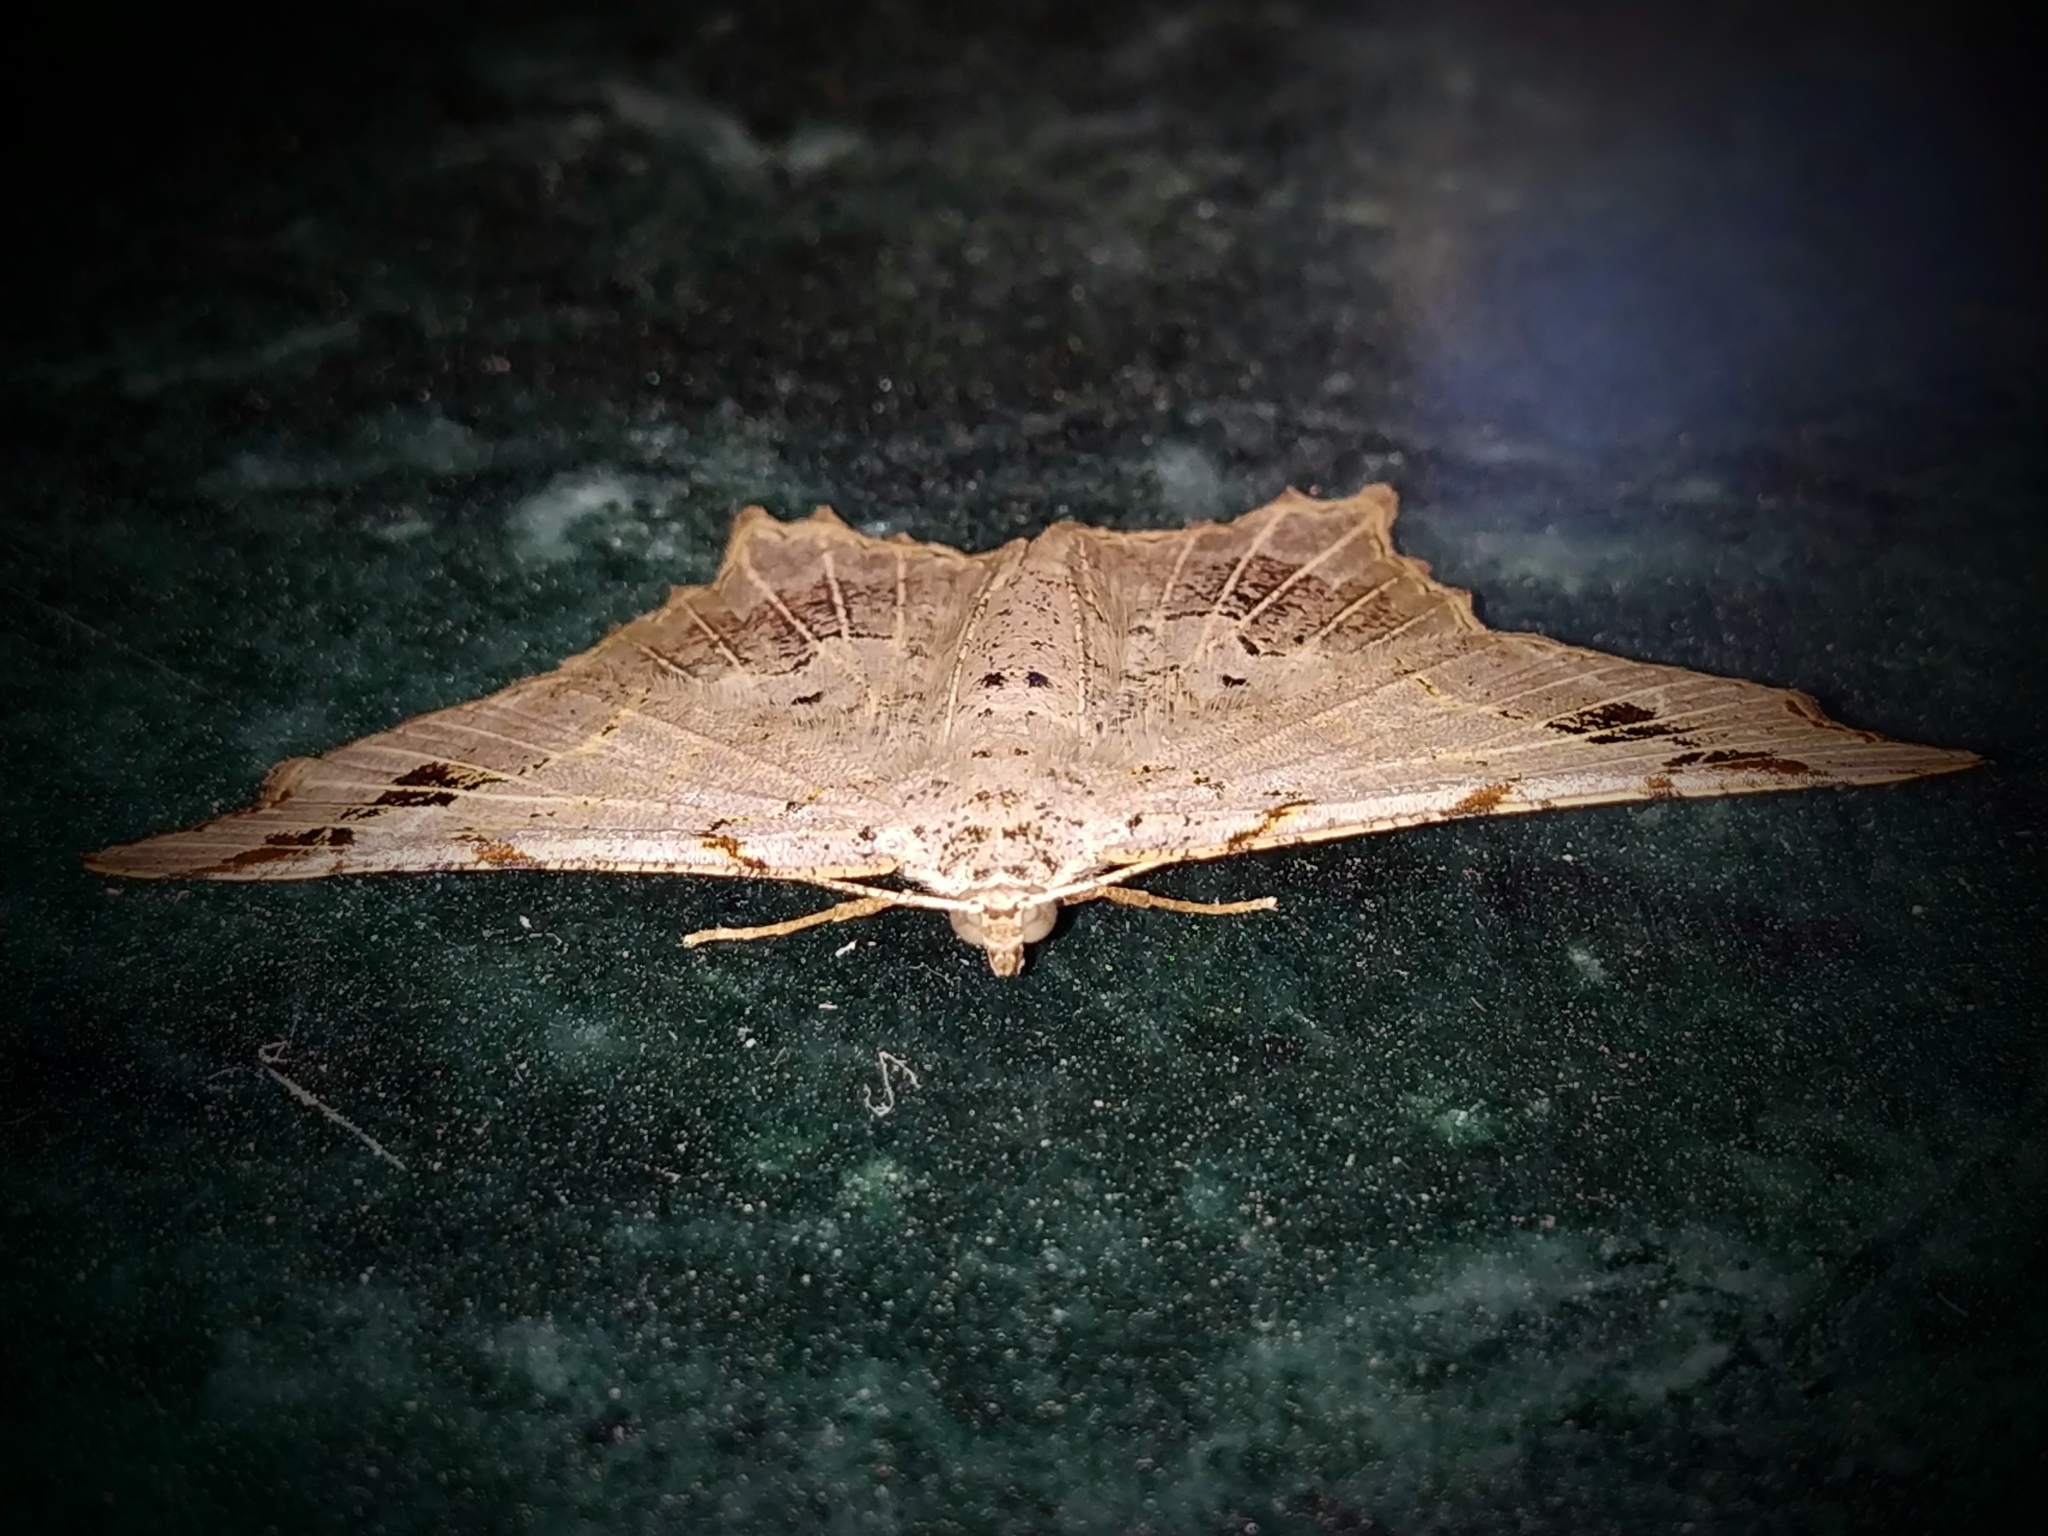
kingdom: Animalia
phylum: Arthropoda
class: Insecta
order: Lepidoptera
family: Geometridae
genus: Chiasmia
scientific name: Chiasmia emersaria
